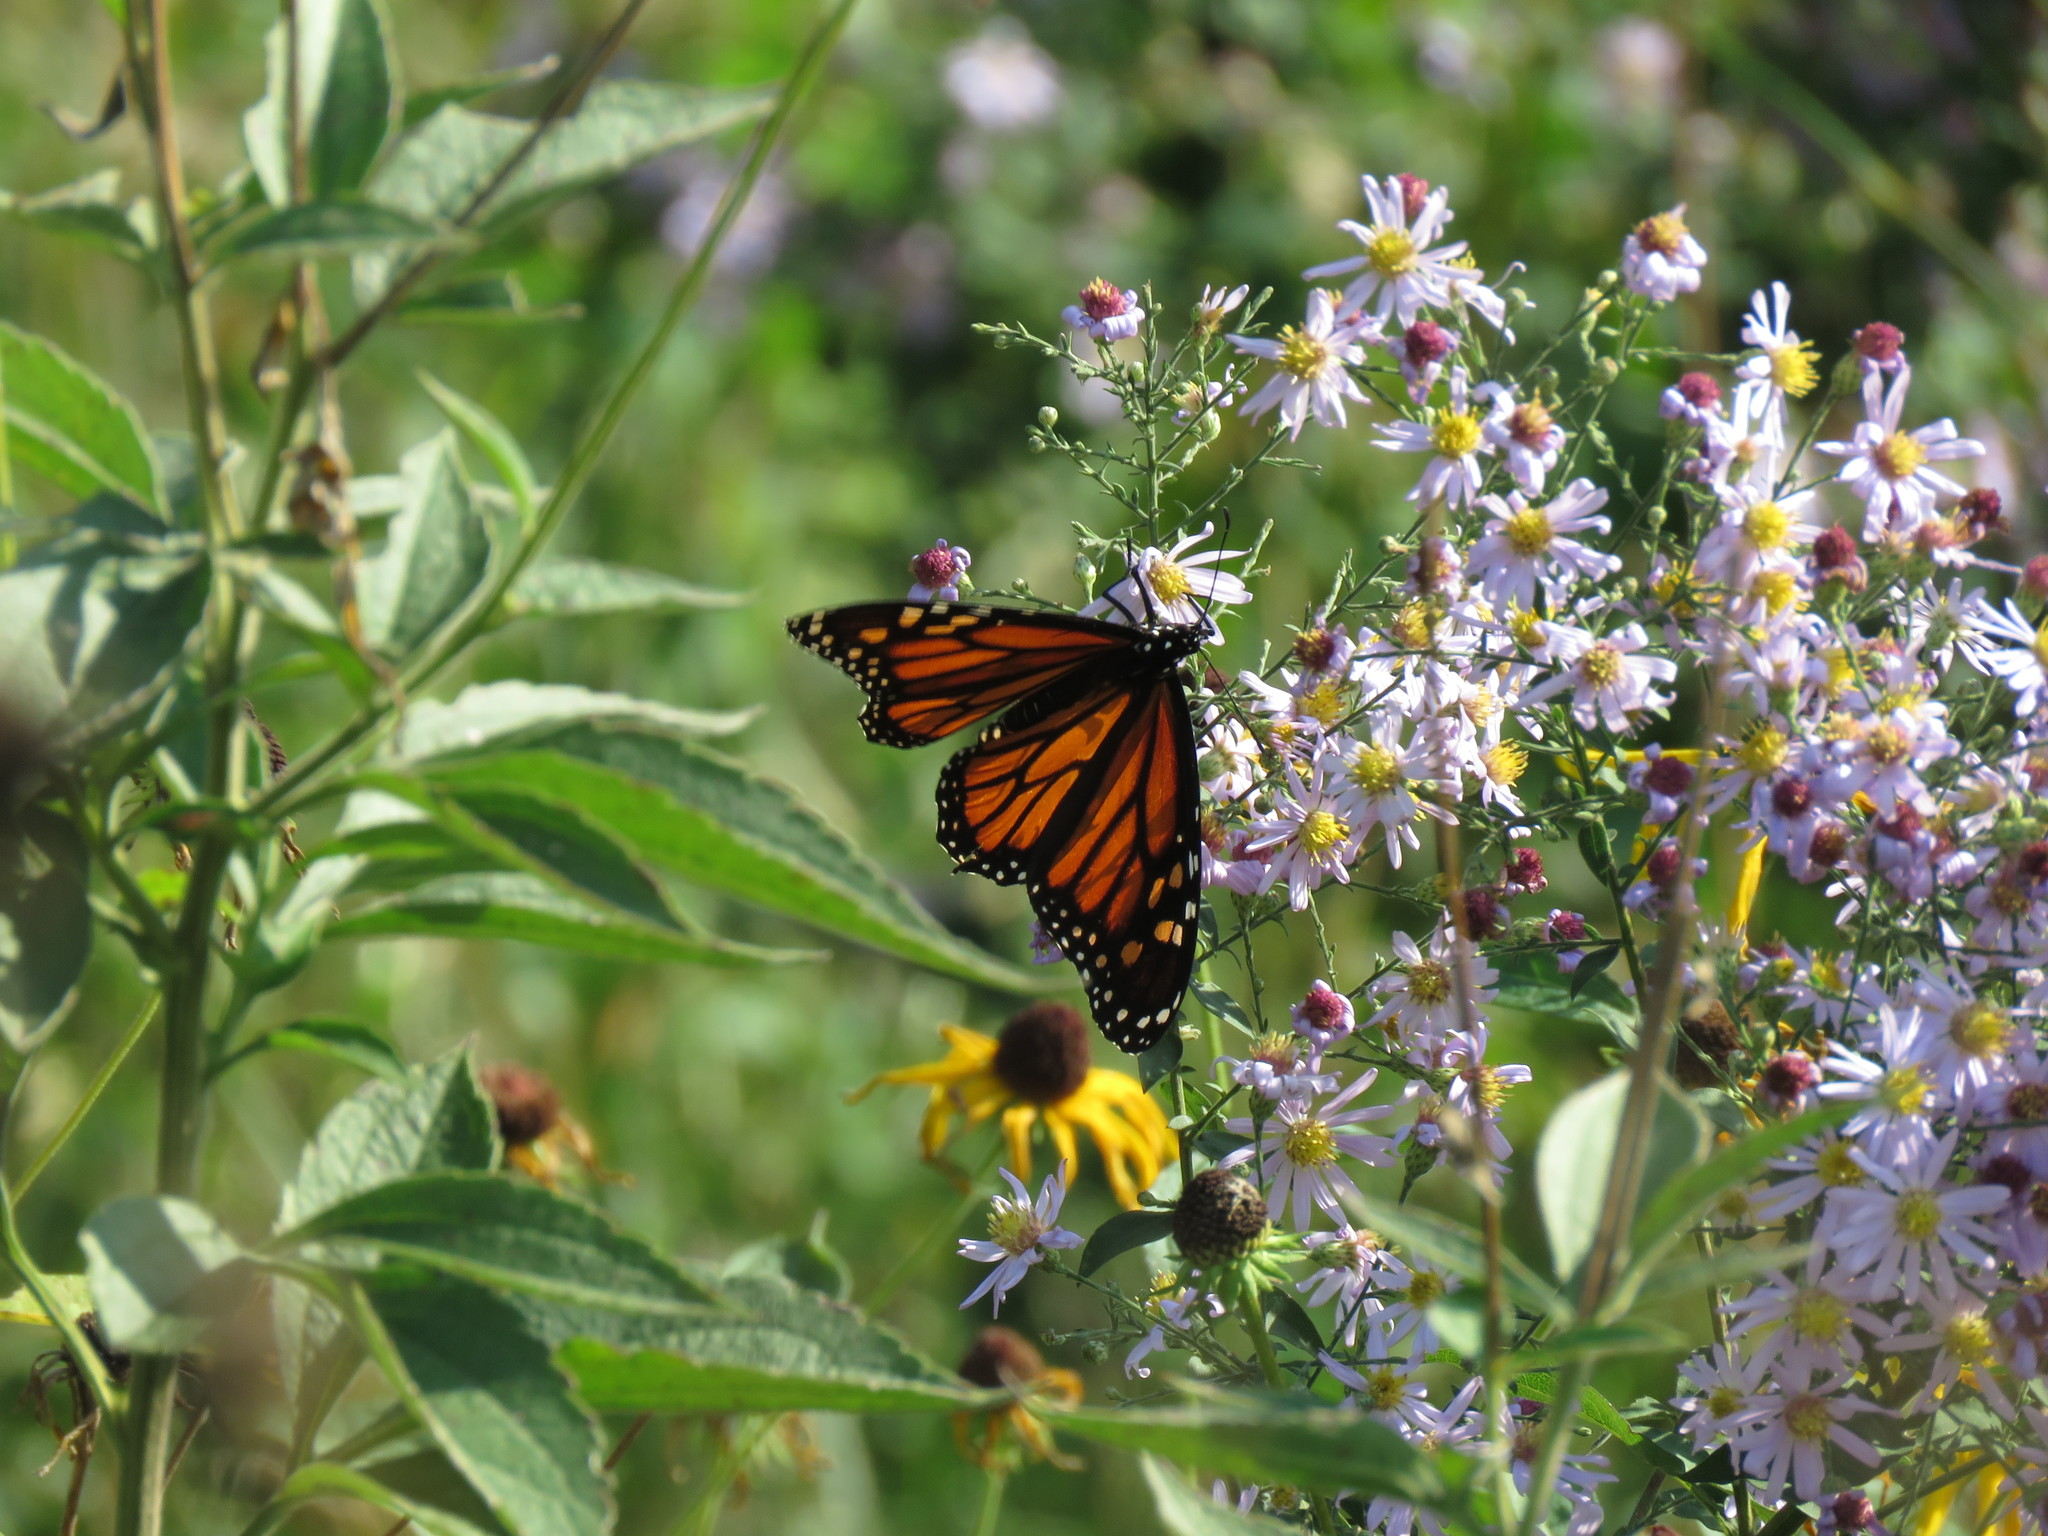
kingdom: Animalia
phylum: Arthropoda
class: Insecta
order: Lepidoptera
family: Nymphalidae
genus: Danaus
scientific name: Danaus plexippus
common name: Monarch
